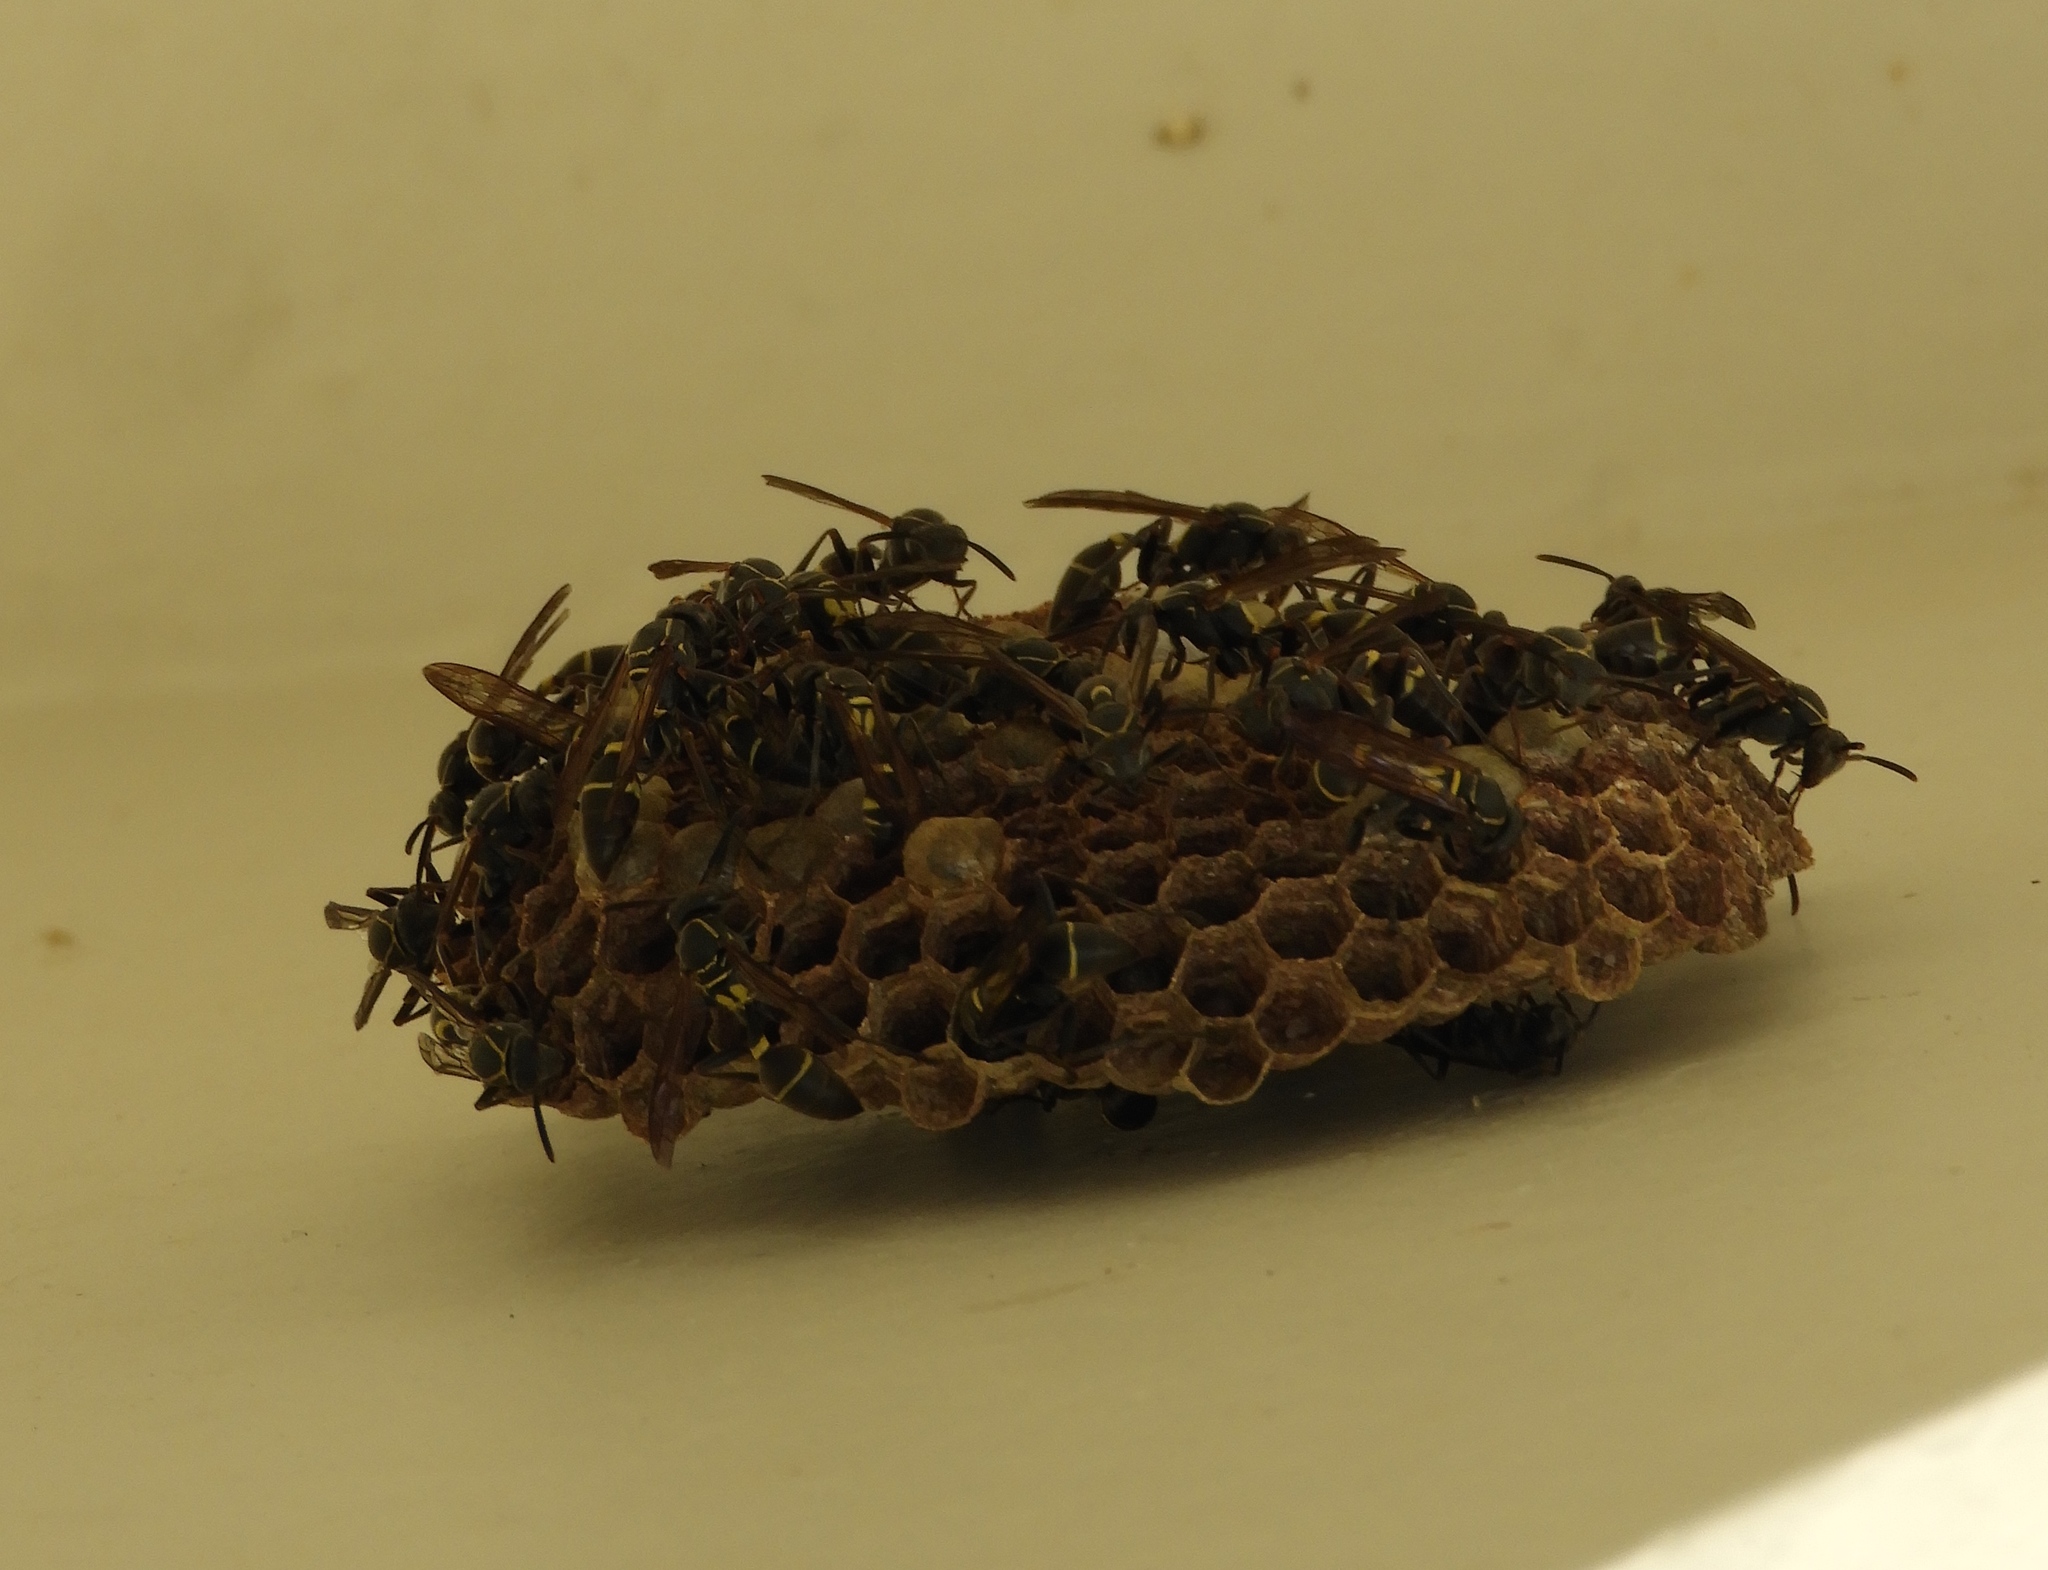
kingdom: Animalia
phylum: Arthropoda
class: Insecta
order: Hymenoptera
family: Vespidae
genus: Mischocyttarus
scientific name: Mischocyttarus pallidipectus
